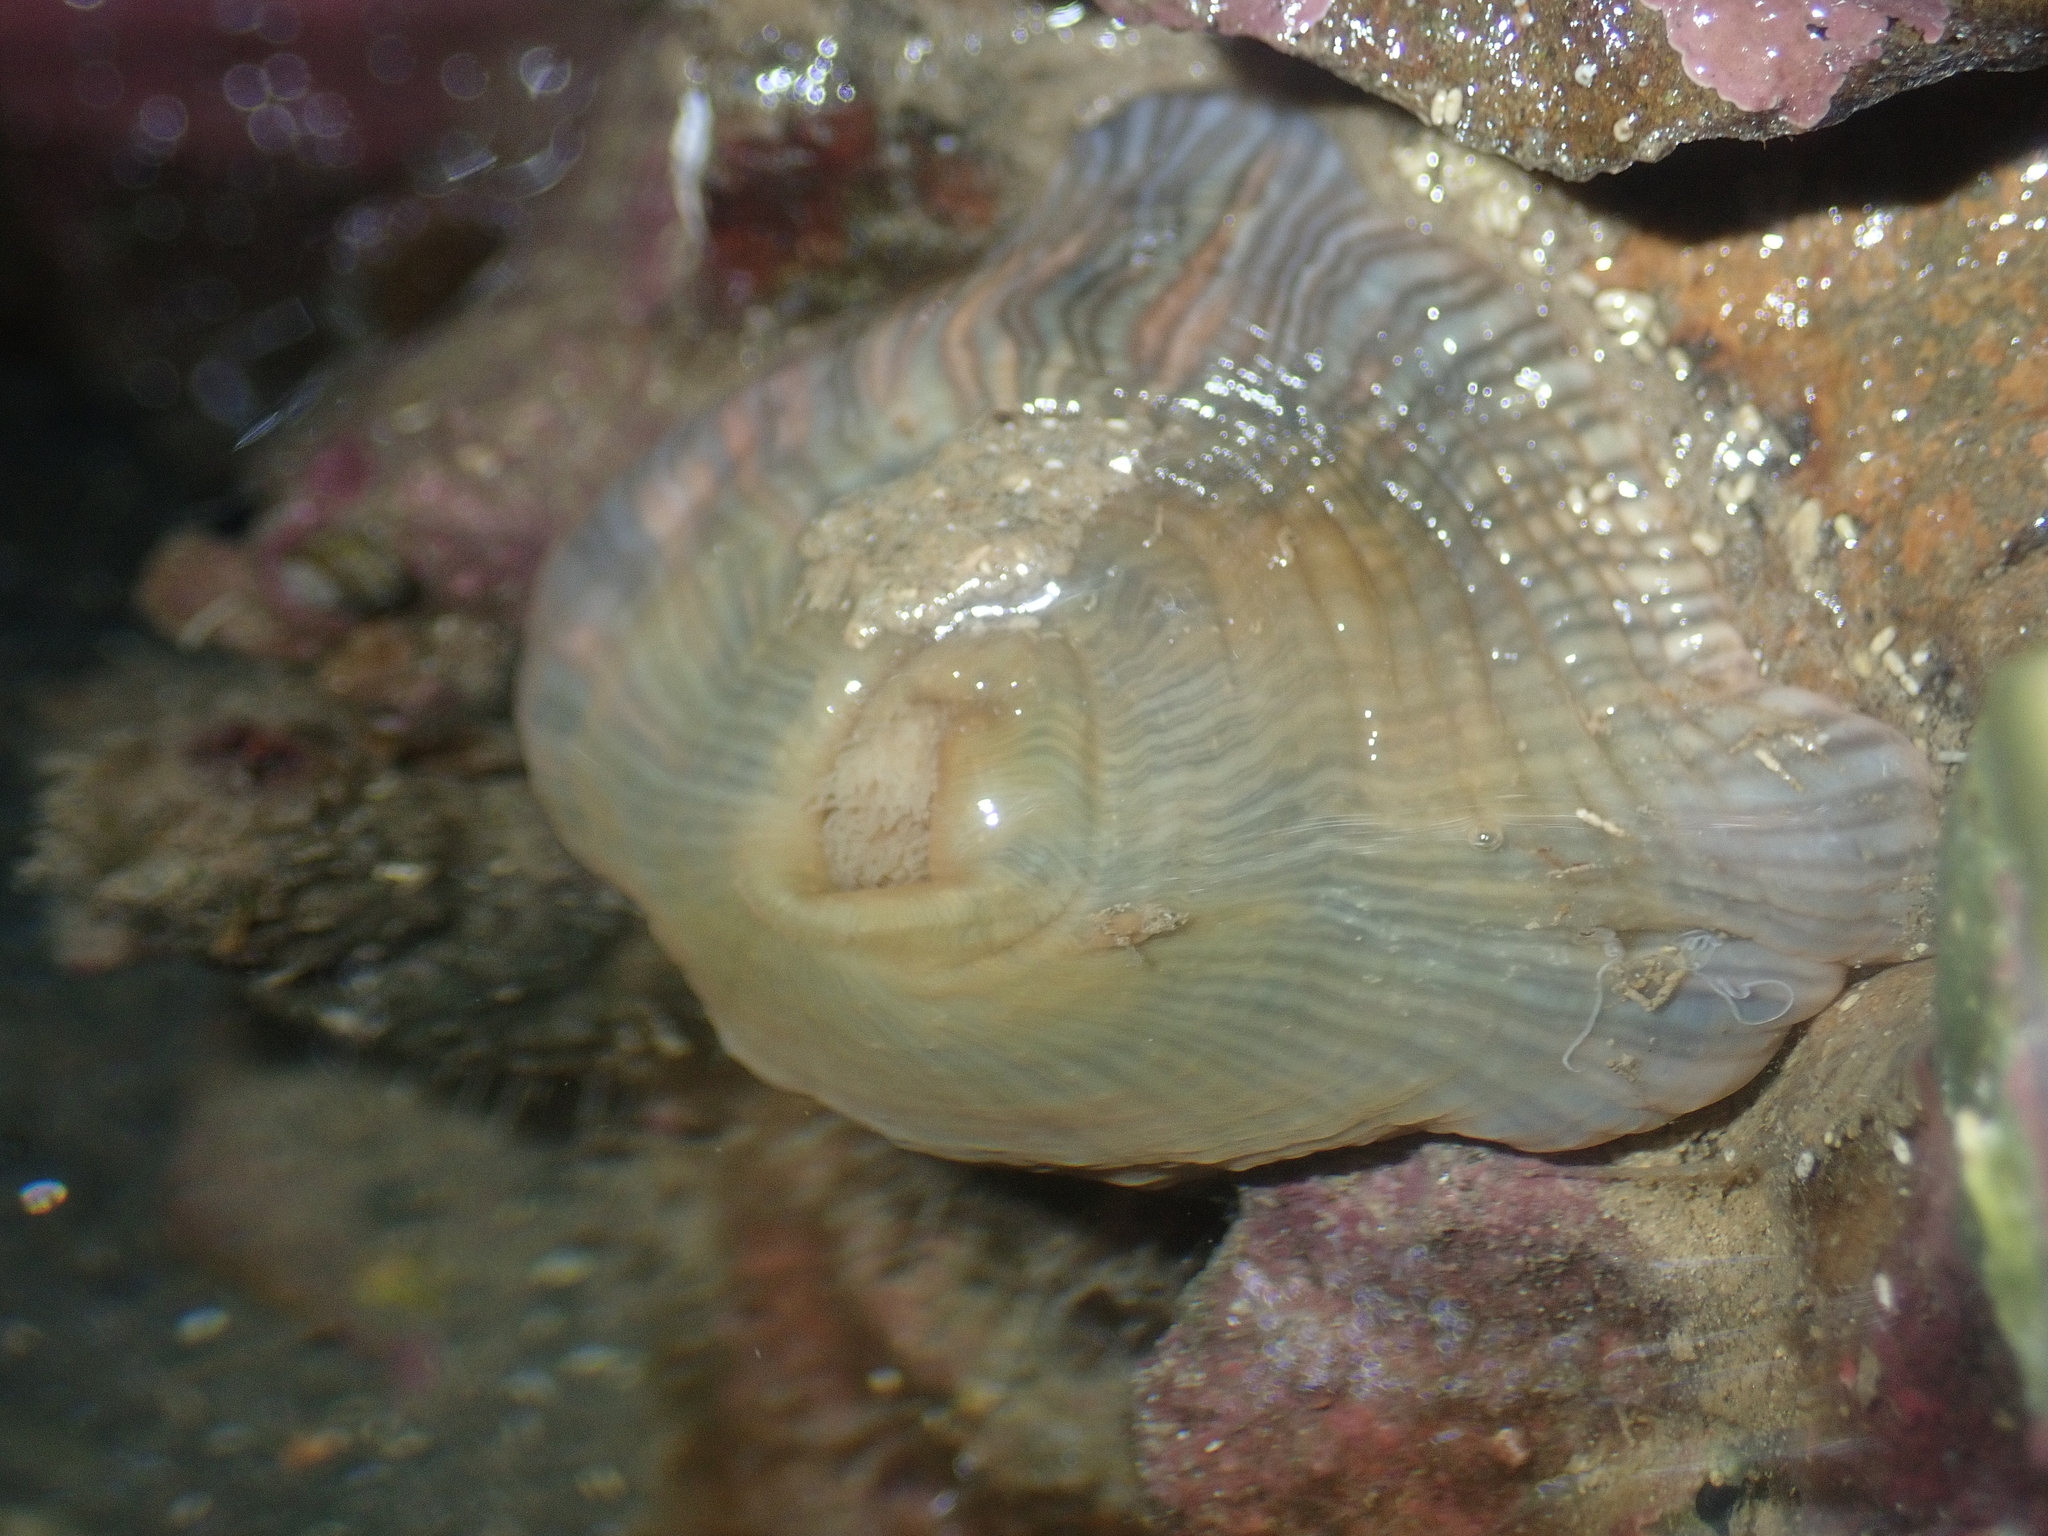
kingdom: Animalia
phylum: Cnidaria
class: Anthozoa
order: Actiniaria
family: Diadumenidae
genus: Diadumene
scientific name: Diadumene neozelanica
